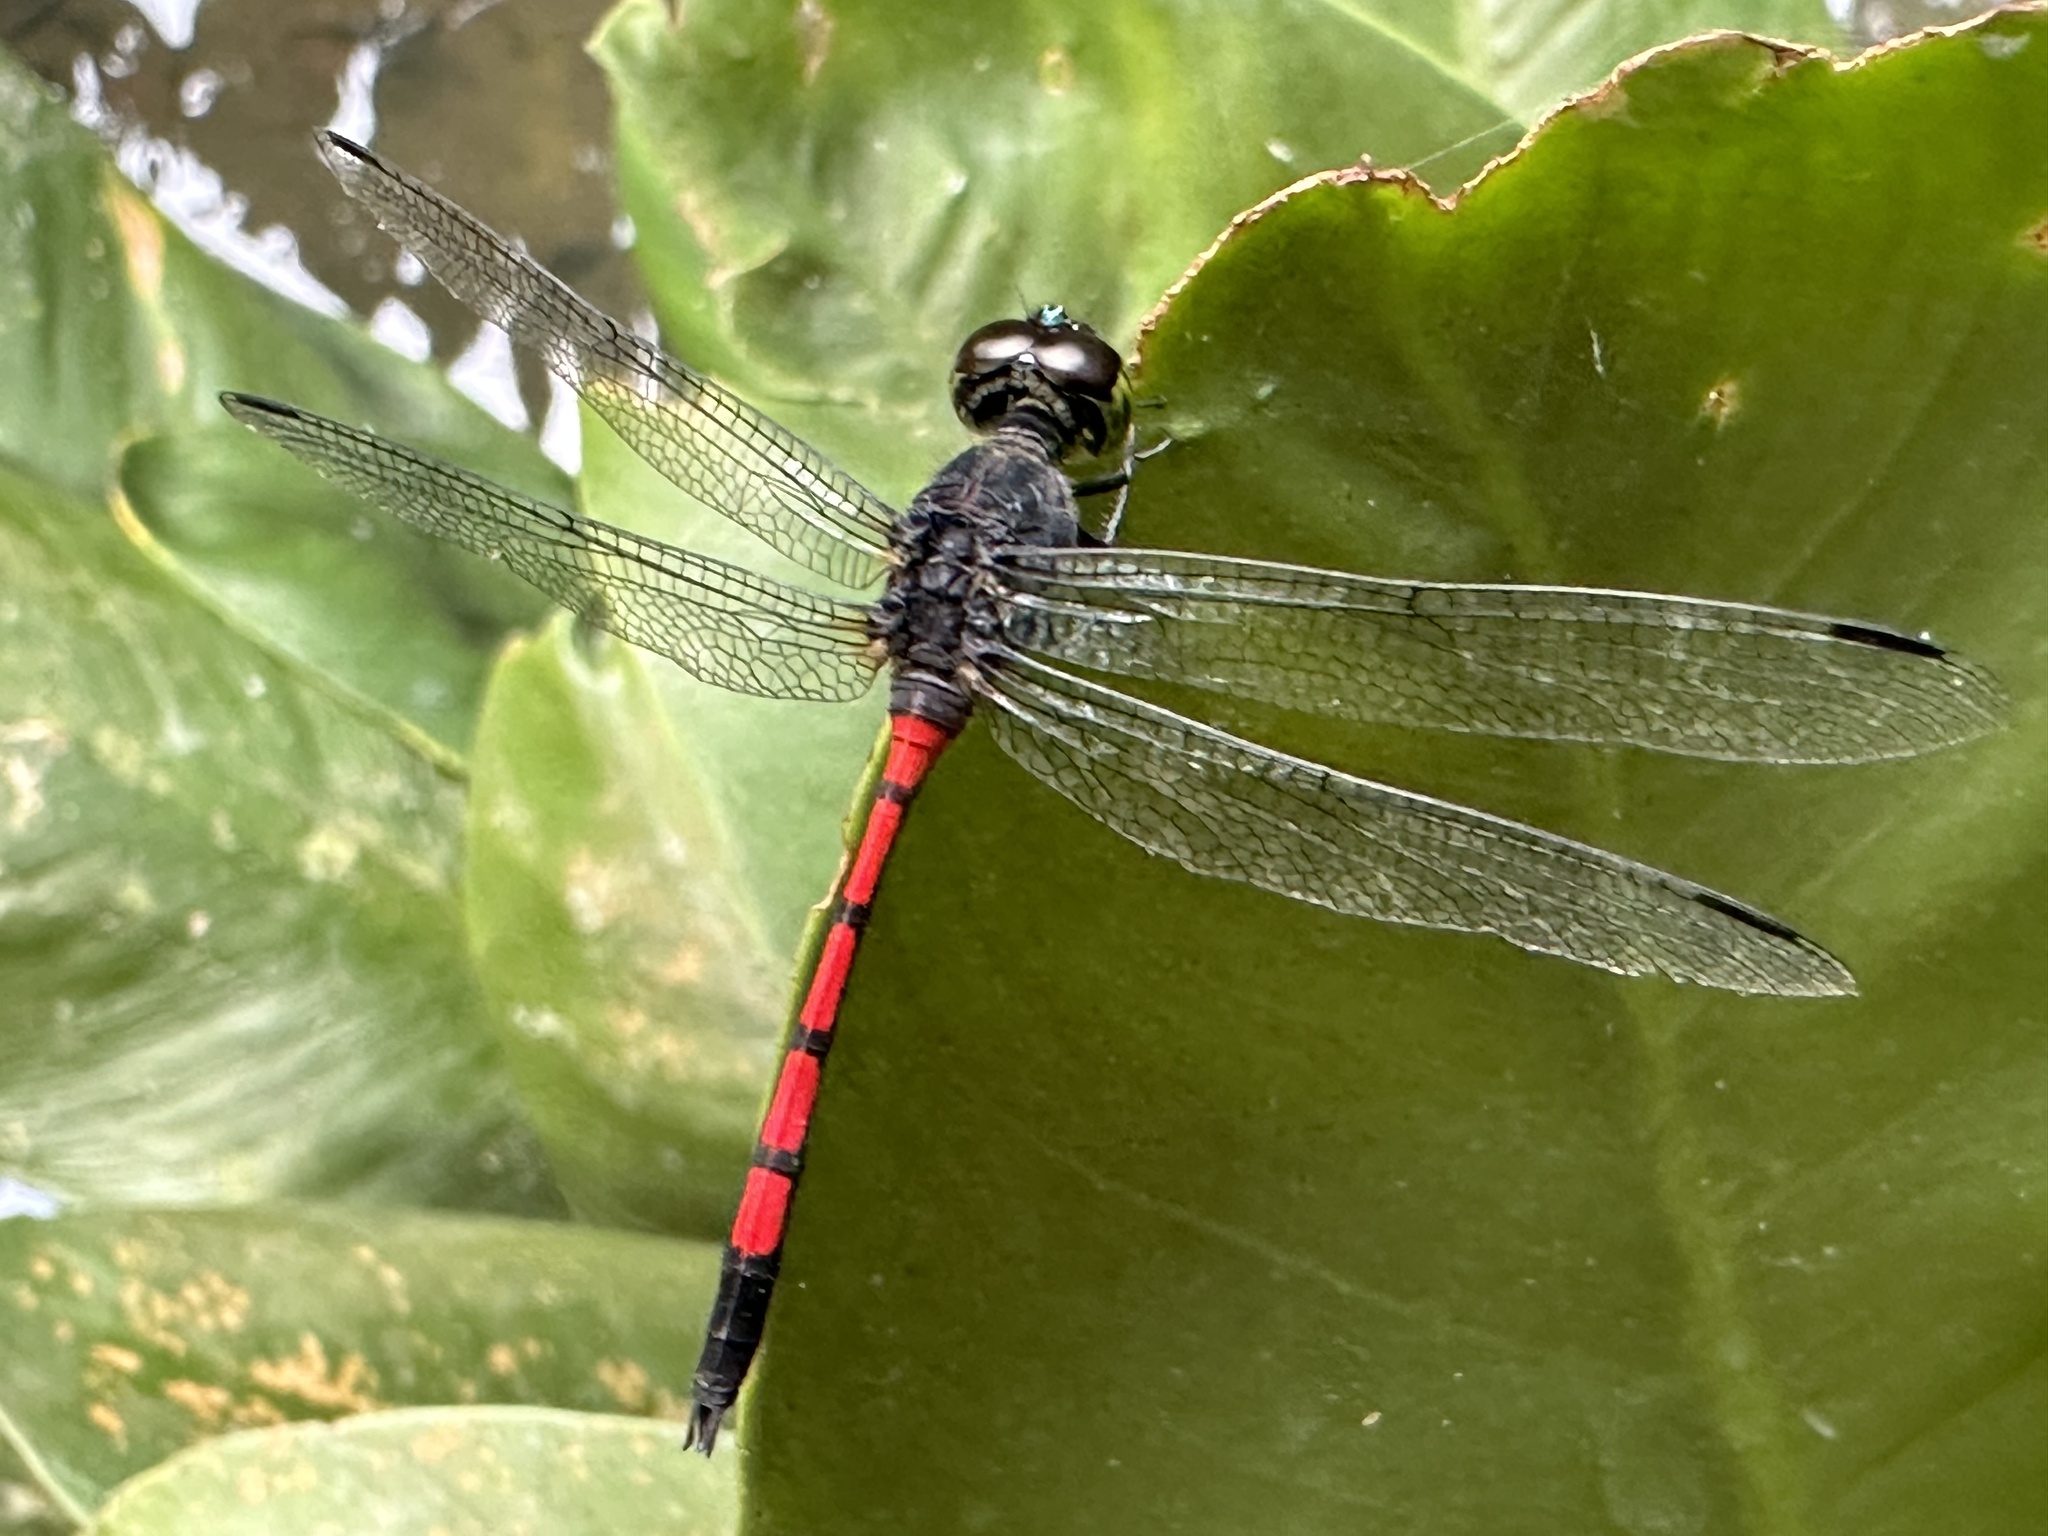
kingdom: Animalia
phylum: Arthropoda
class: Insecta
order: Odonata
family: Libellulidae
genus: Agrionoptera
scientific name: Agrionoptera insignis
